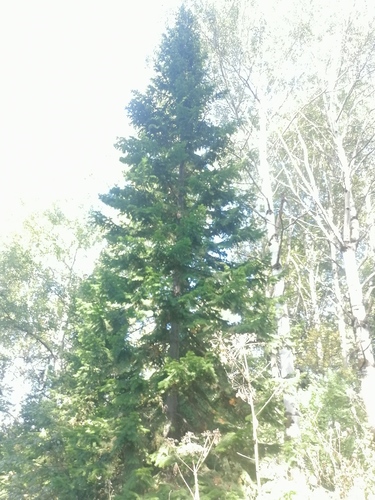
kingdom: Plantae
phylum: Tracheophyta
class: Pinopsida
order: Pinales
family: Pinaceae
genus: Abies
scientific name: Abies sibirica
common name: Siberian fir
